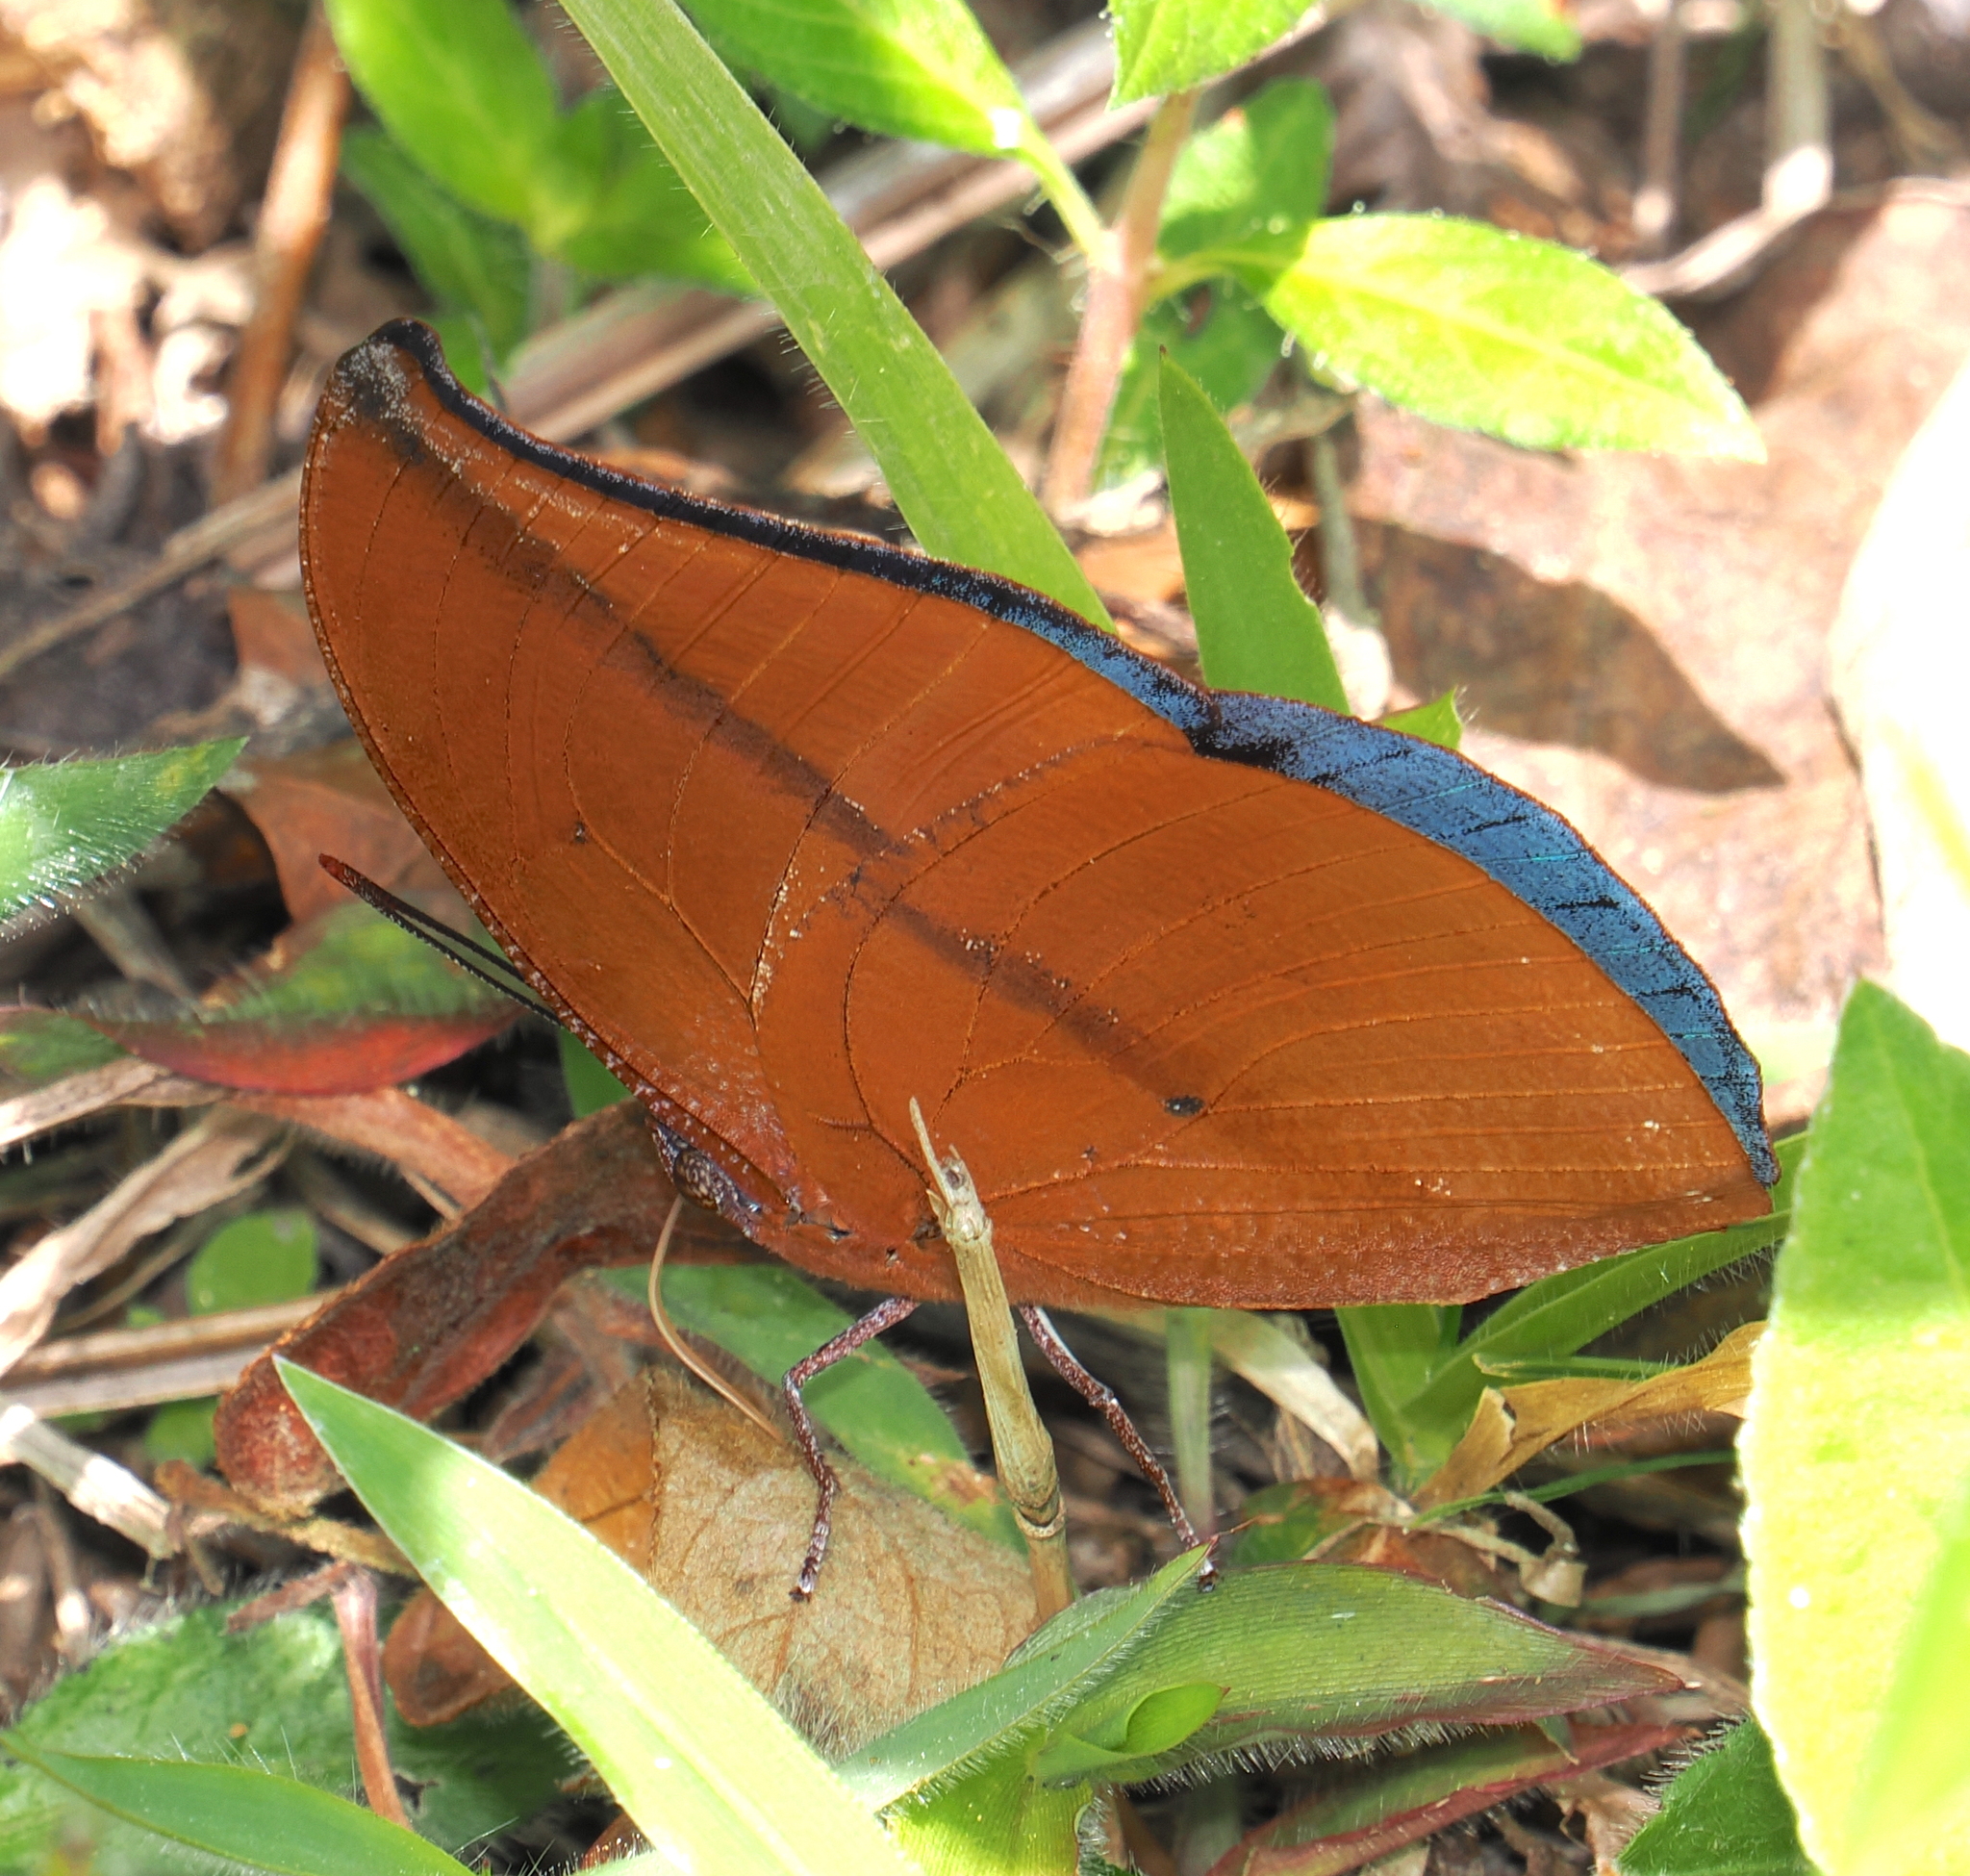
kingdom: Animalia
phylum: Arthropoda
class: Insecta
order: Lepidoptera
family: Nymphalidae
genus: Memphis
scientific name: Memphis
